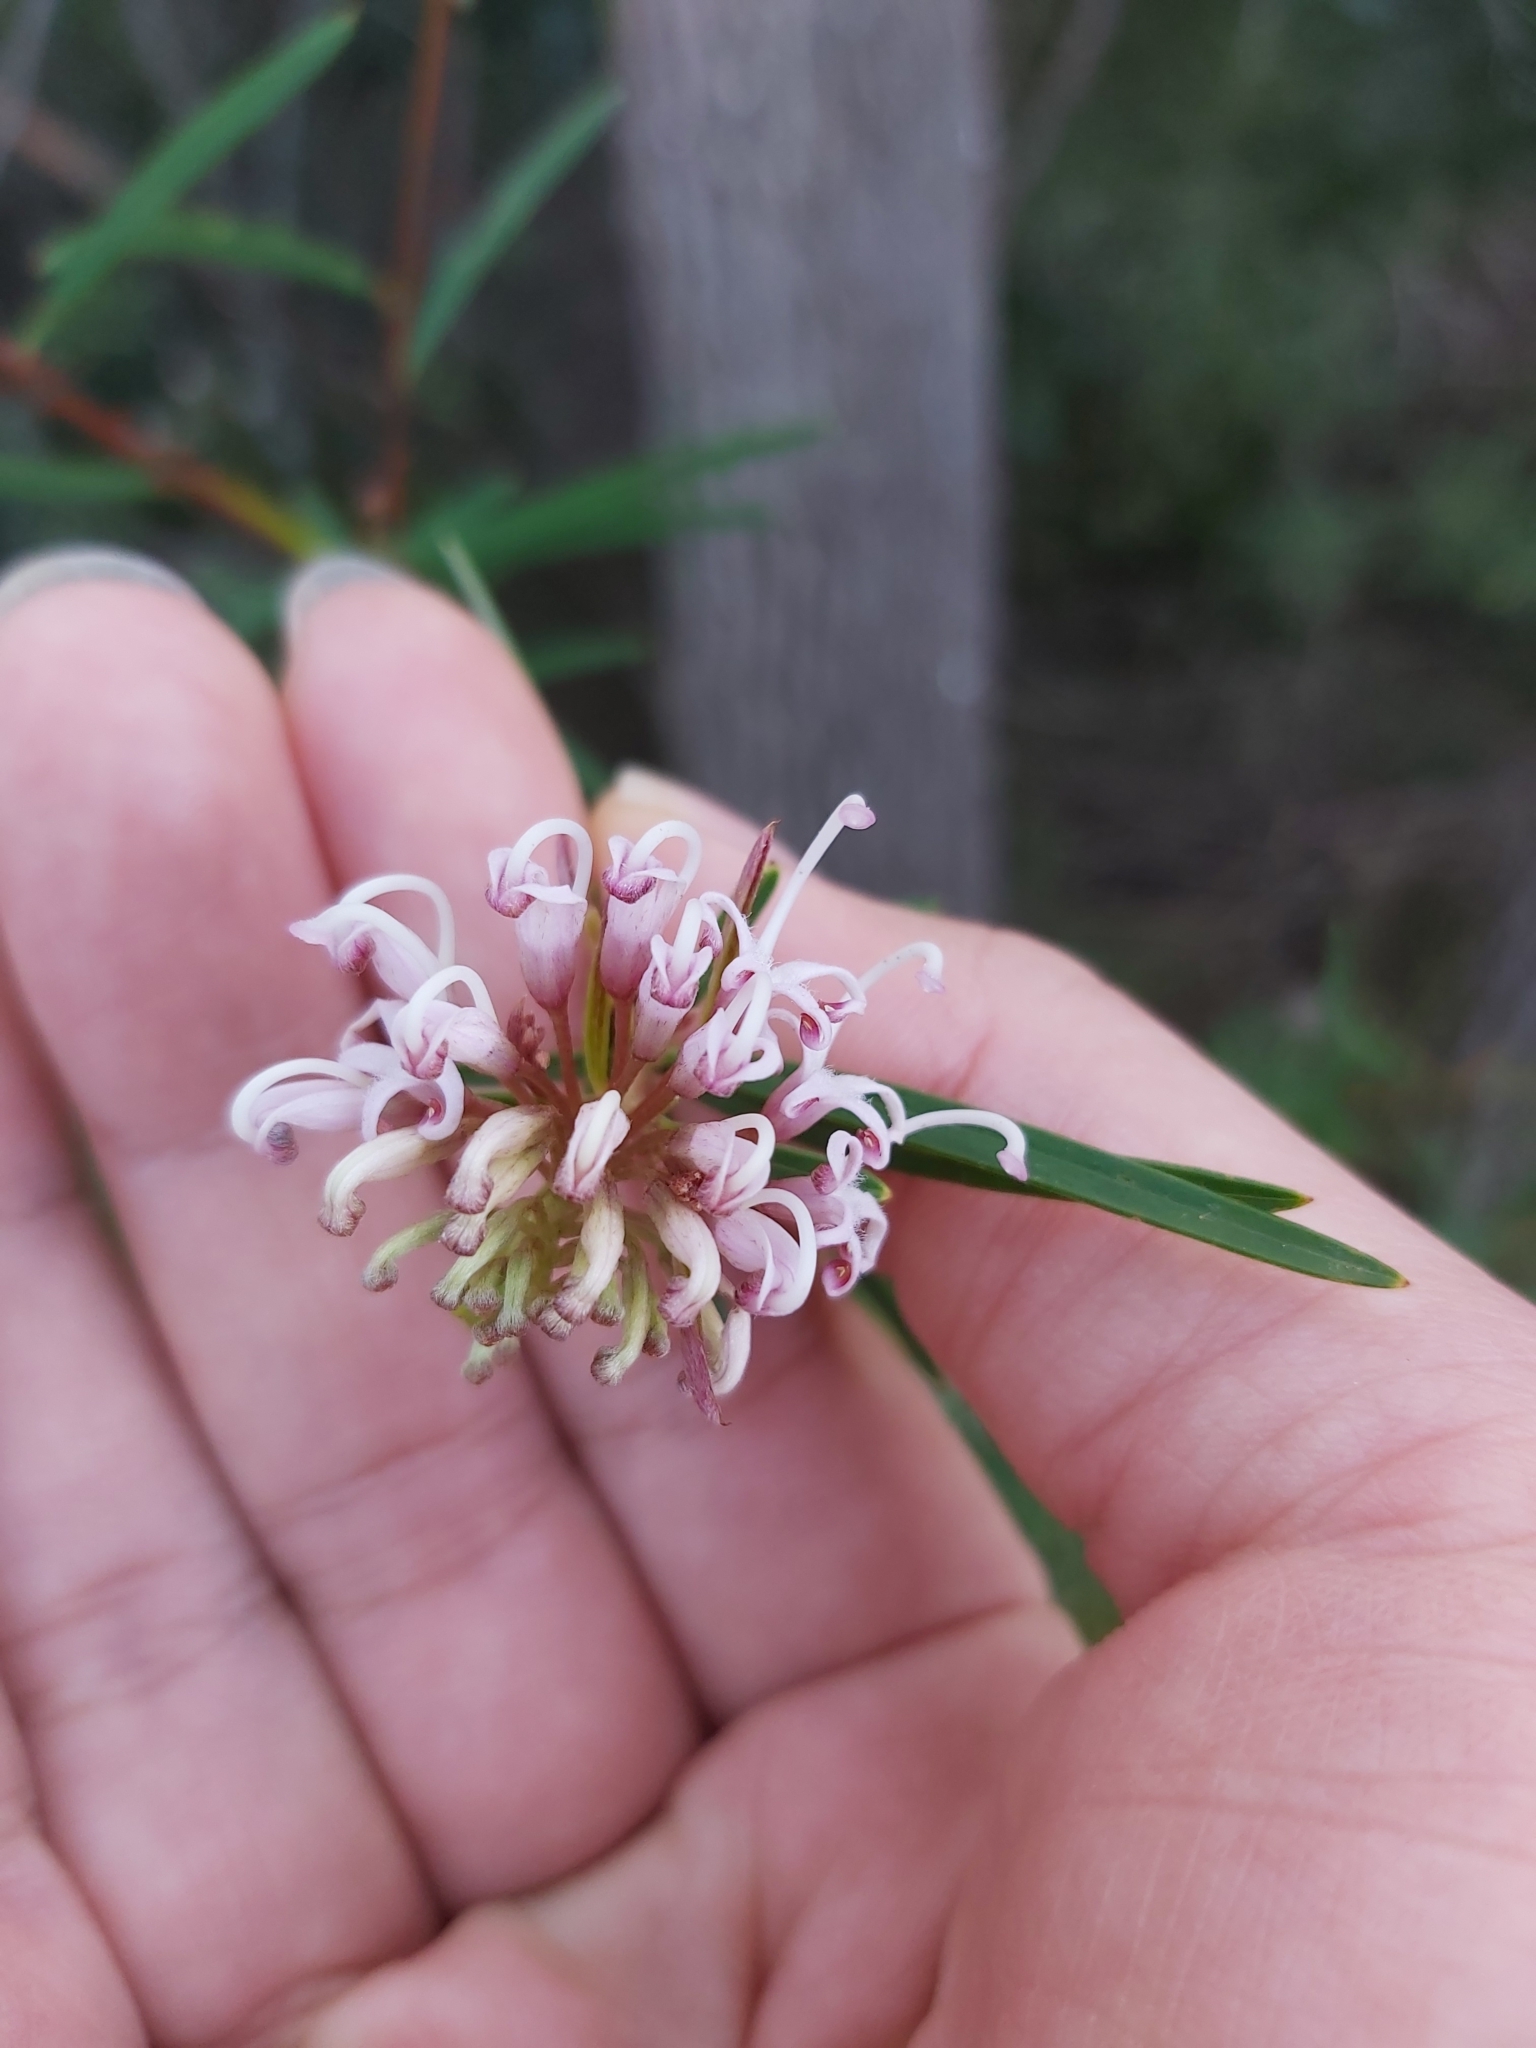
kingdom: Plantae
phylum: Tracheophyta
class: Magnoliopsida
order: Proteales
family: Proteaceae
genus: Grevillea
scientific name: Grevillea linearifolia
